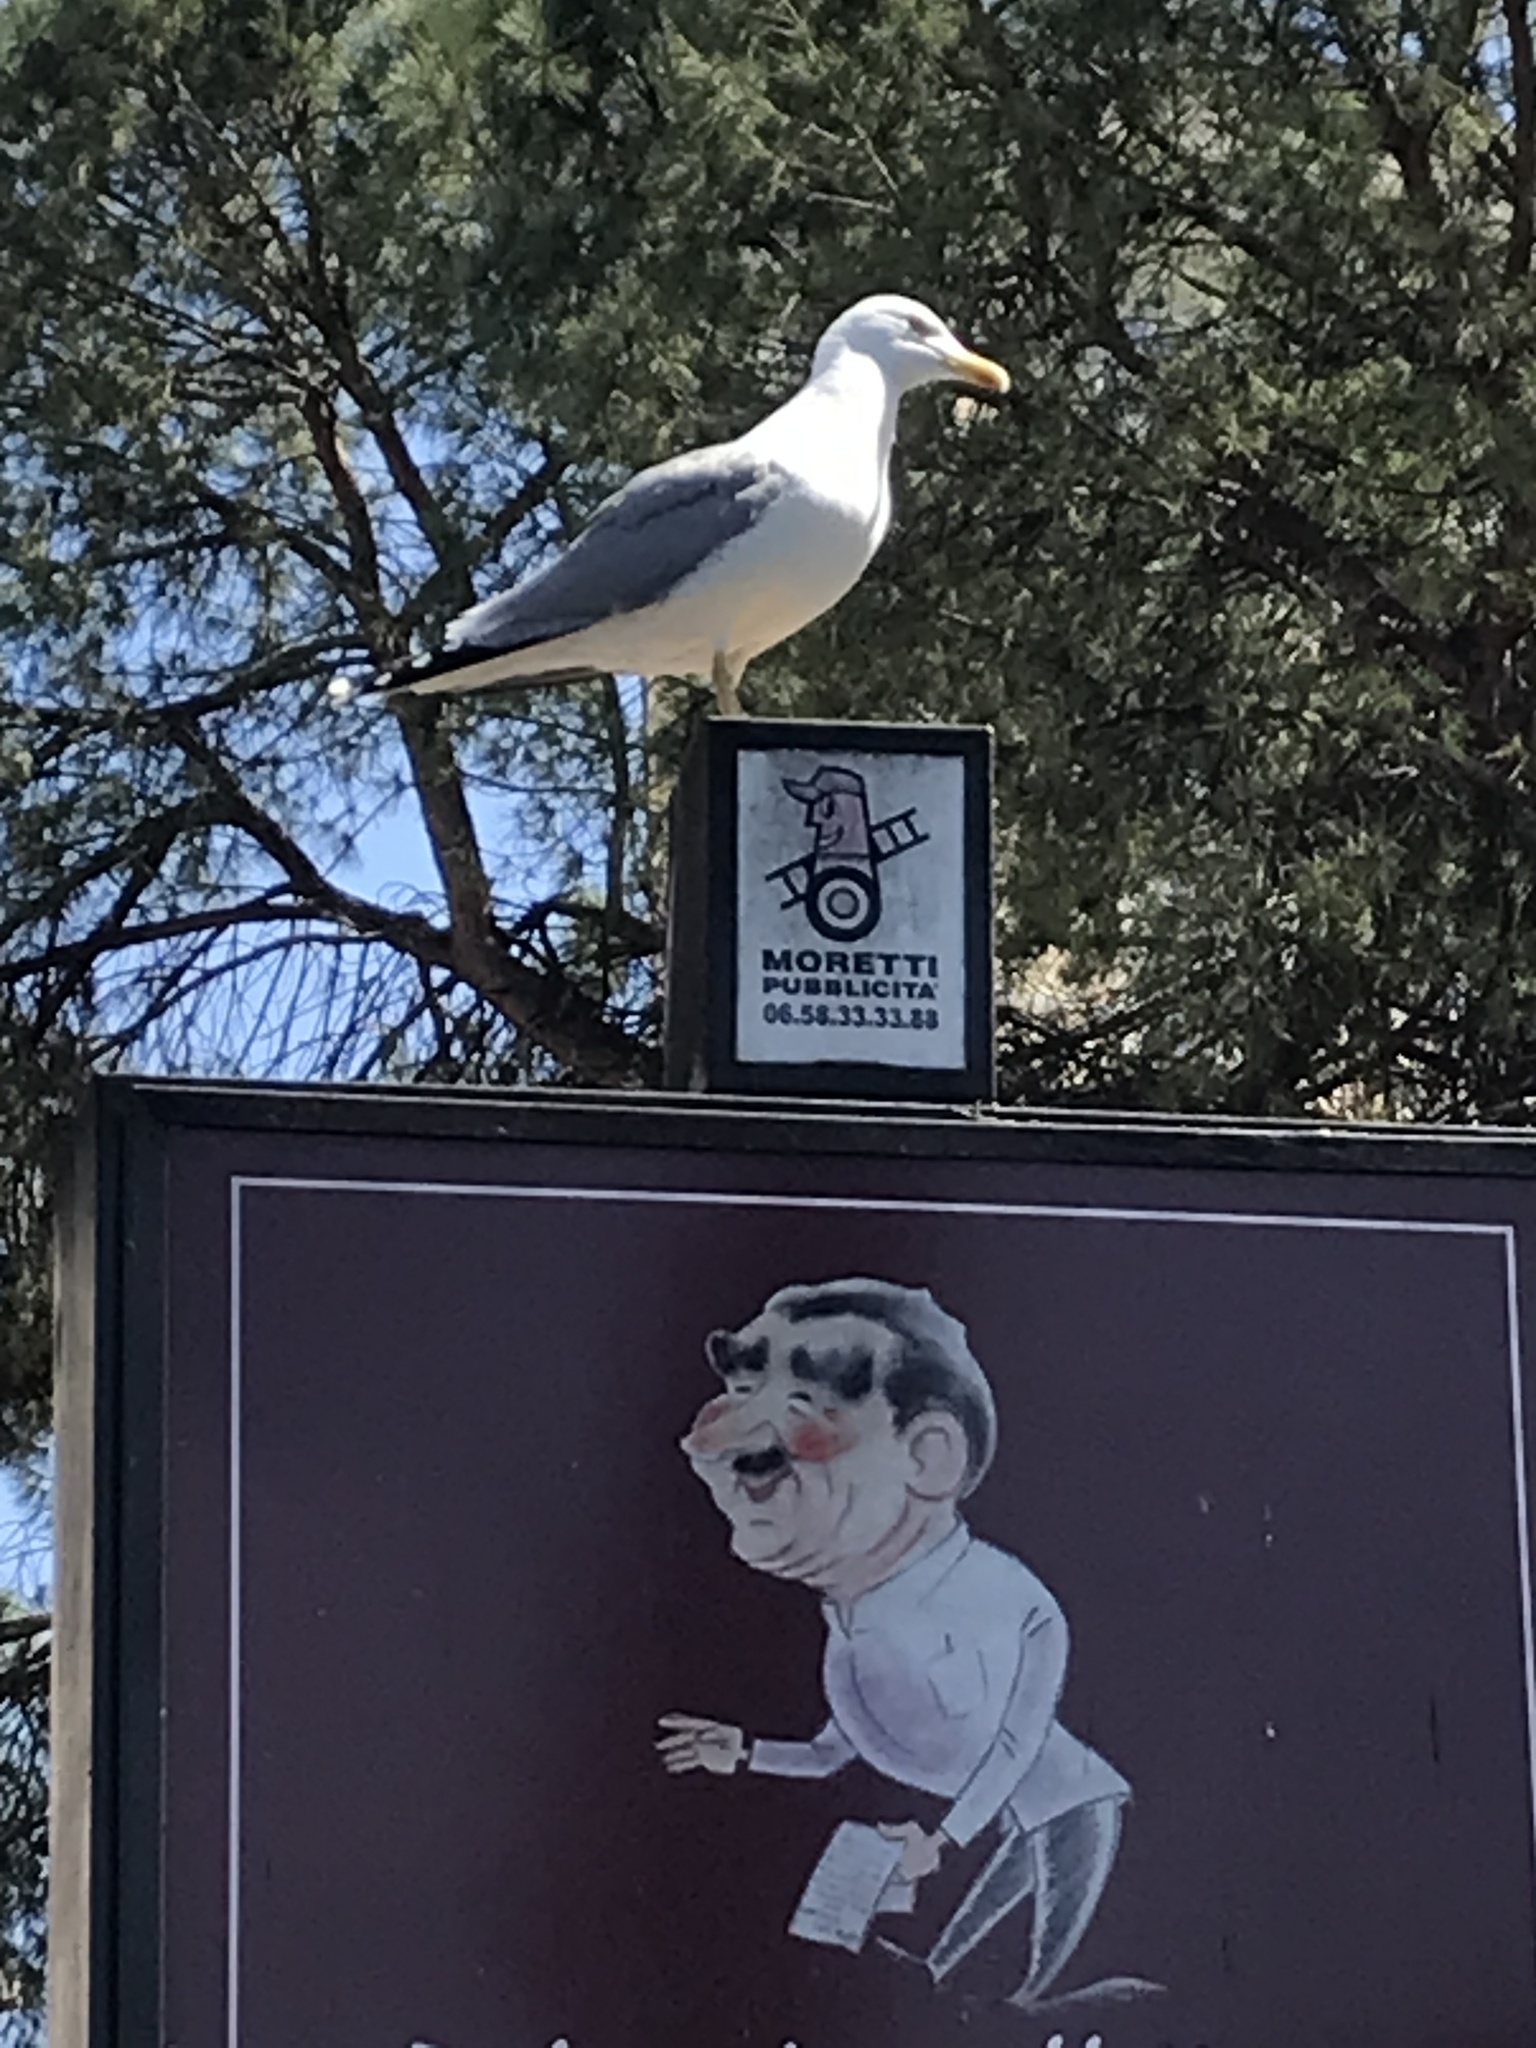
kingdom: Animalia
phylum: Chordata
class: Aves
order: Charadriiformes
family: Laridae
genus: Larus
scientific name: Larus michahellis
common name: Yellow-legged gull
